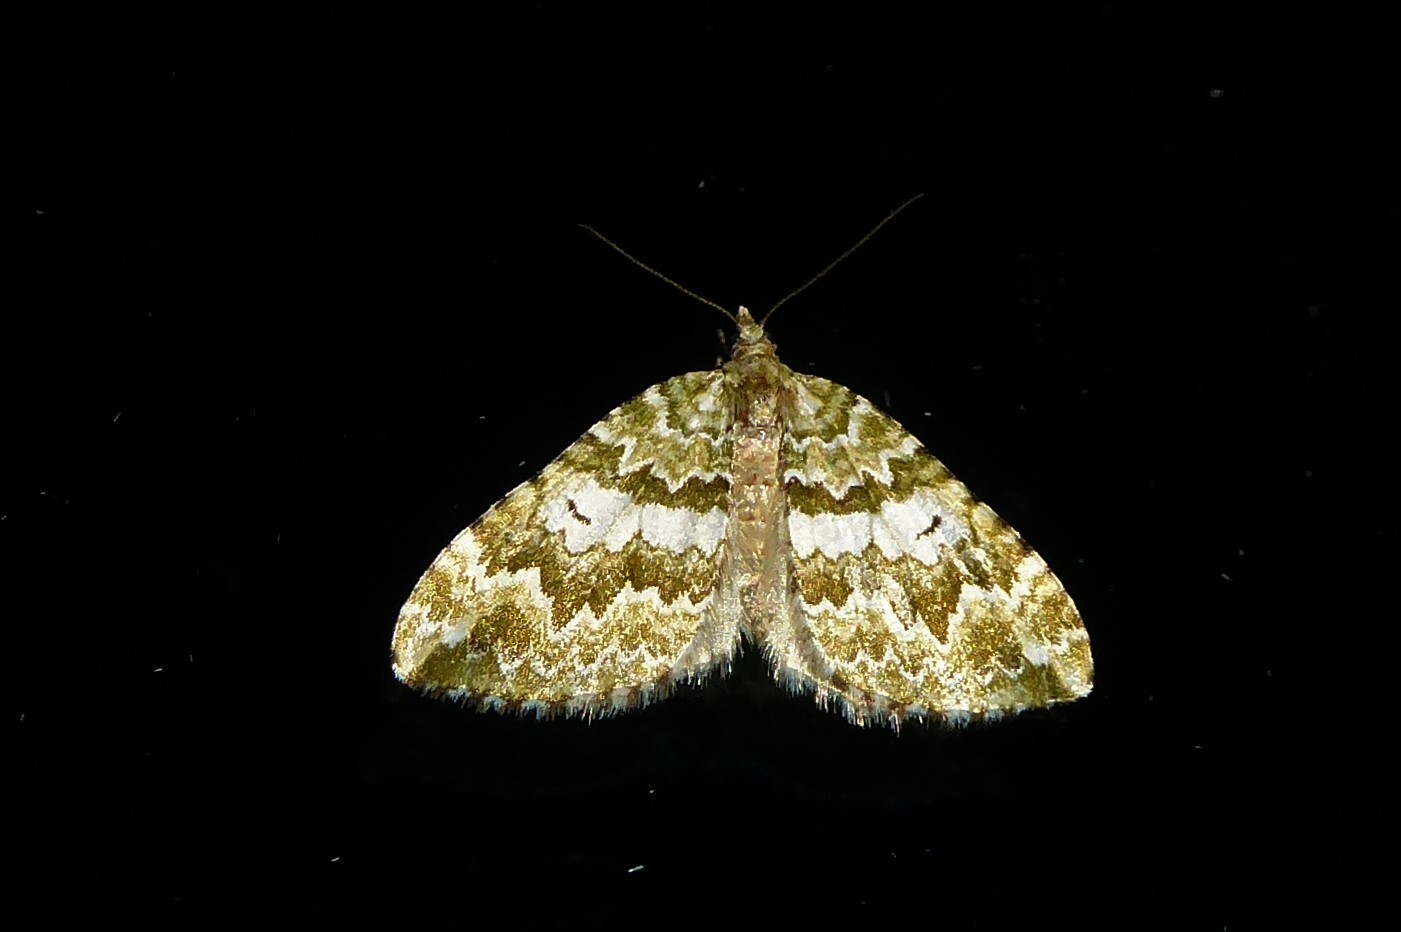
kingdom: Animalia
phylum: Arthropoda
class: Insecta
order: Lepidoptera
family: Geometridae
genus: Asaphodes
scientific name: Asaphodes beata
